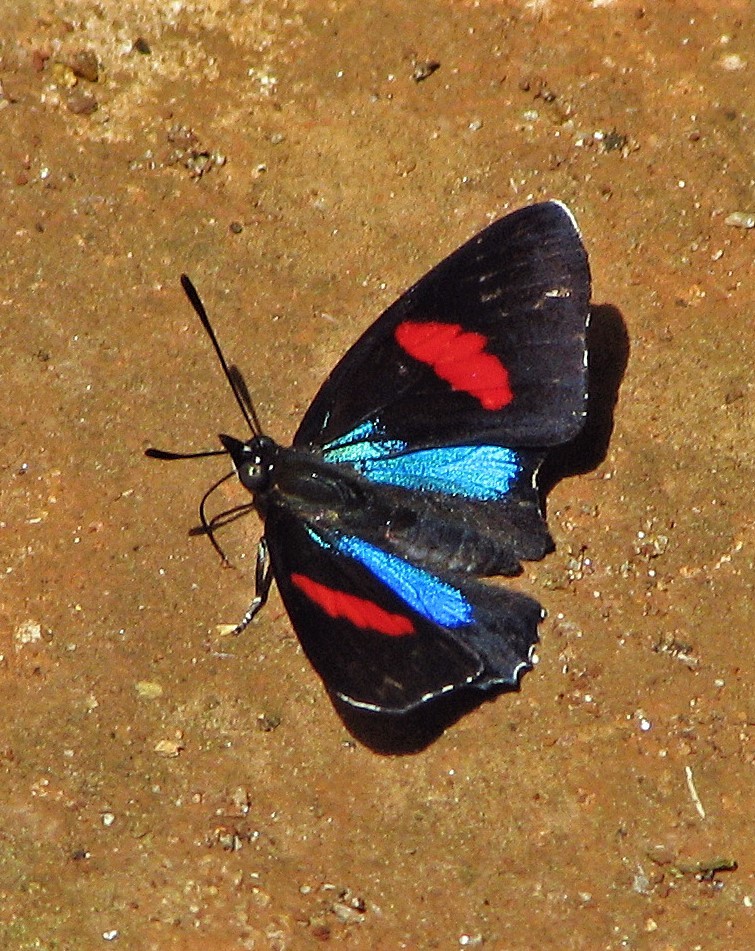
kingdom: Animalia
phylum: Arthropoda
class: Insecta
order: Lepidoptera
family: Nymphalidae
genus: Catagramma
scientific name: Catagramma Callicore hydaspes
